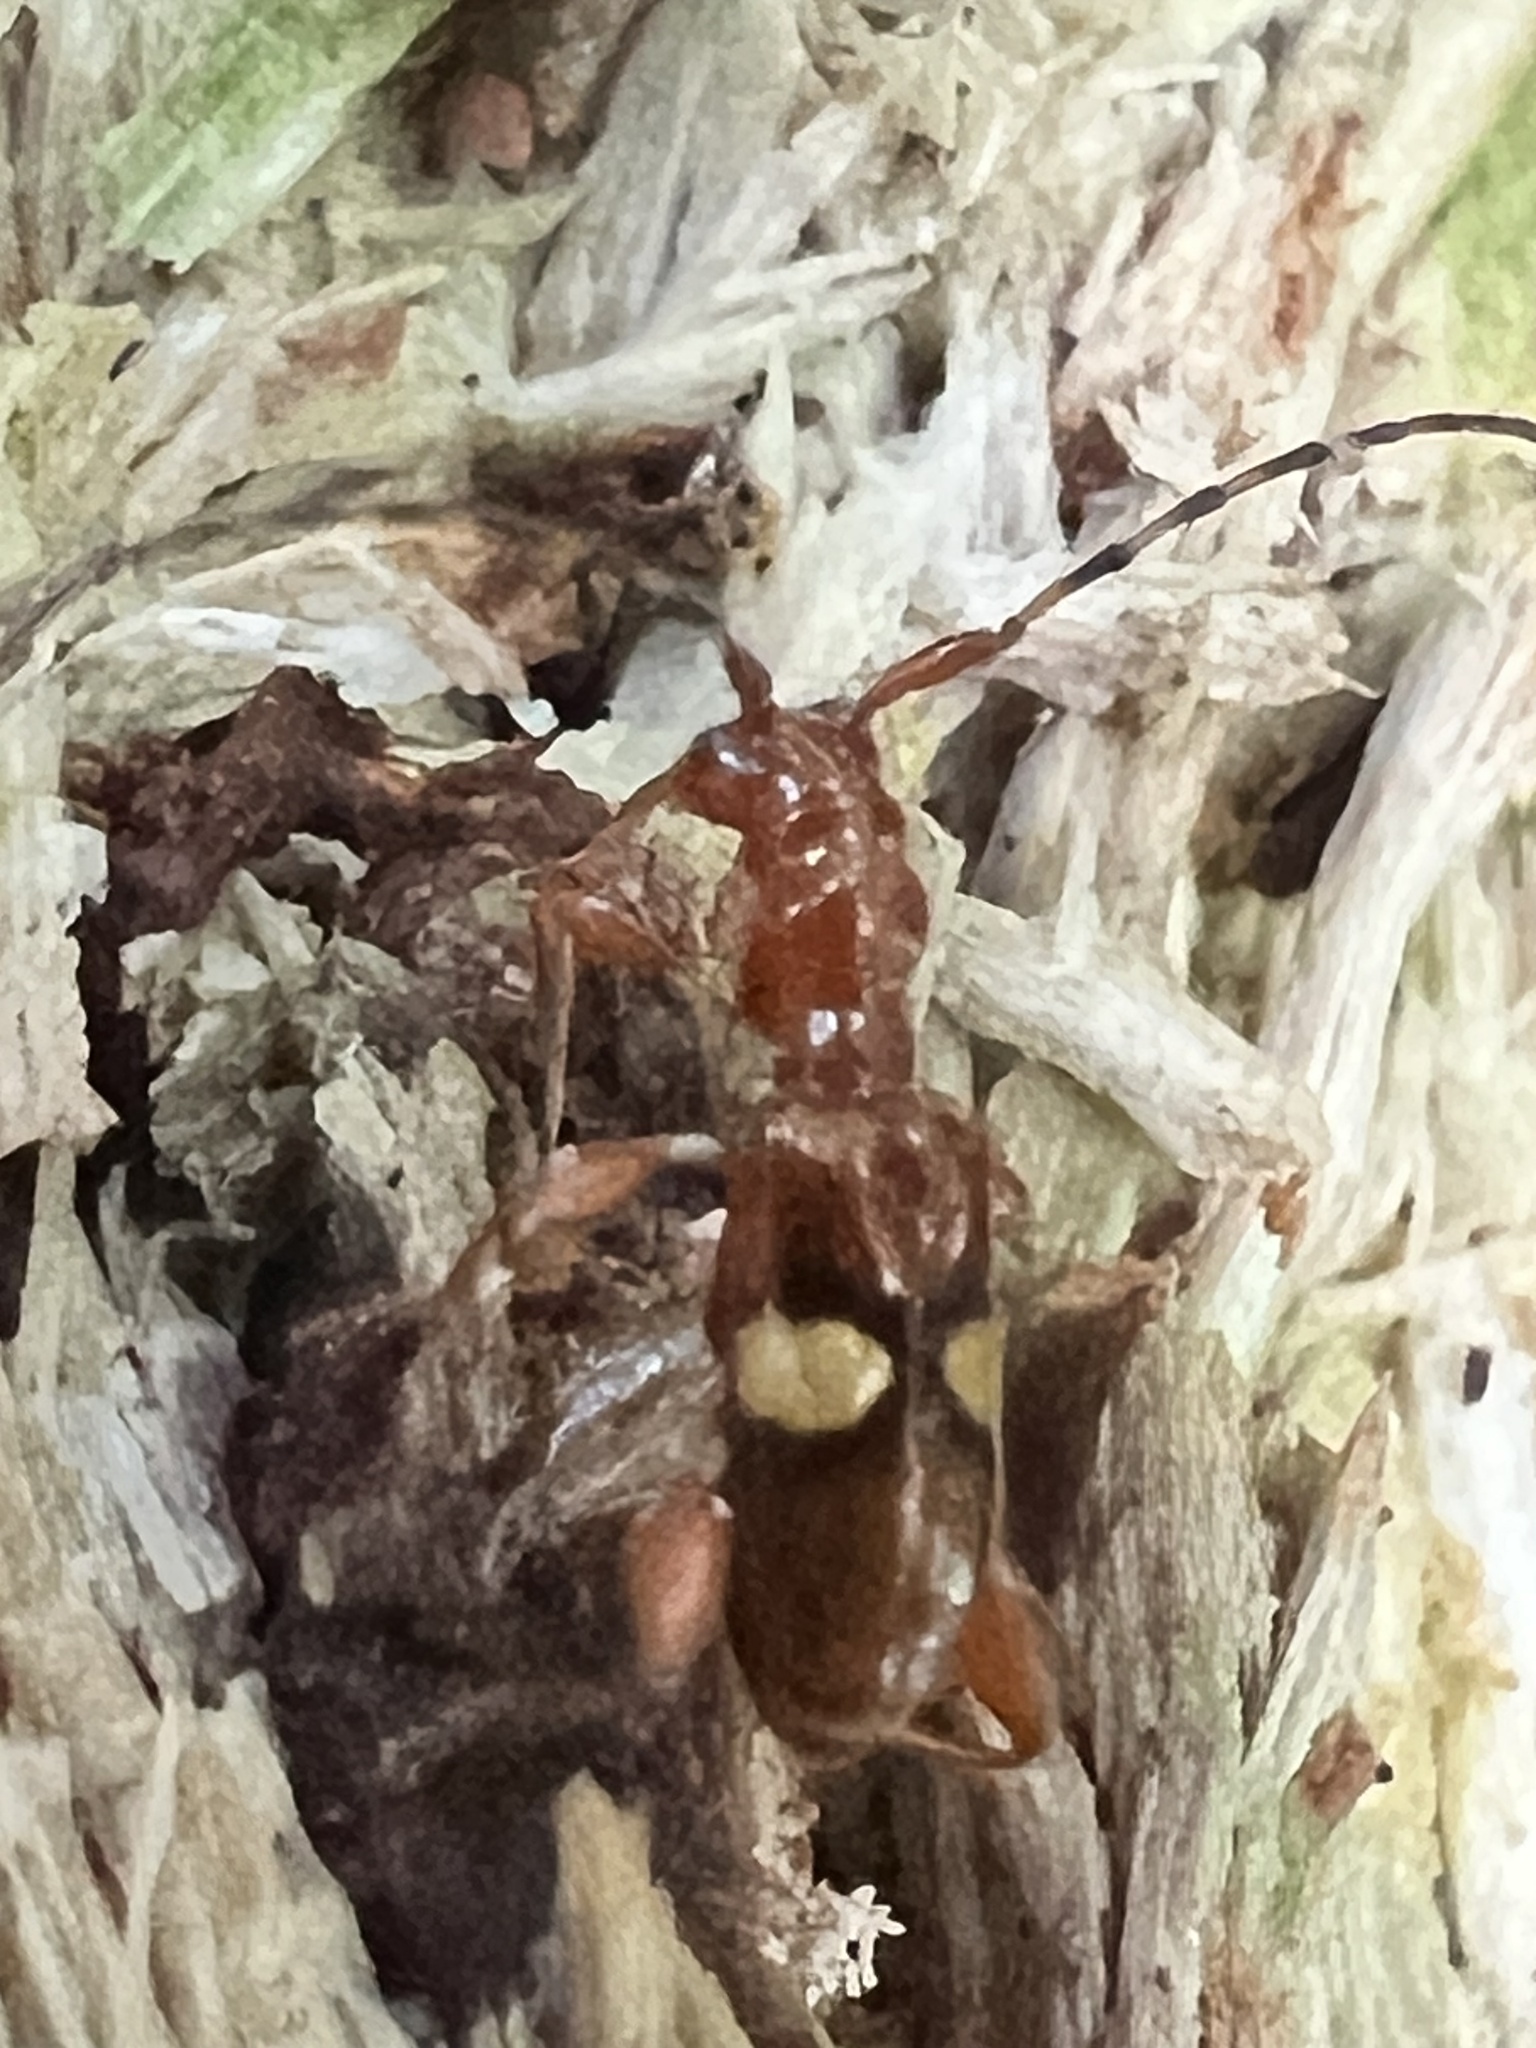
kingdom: Animalia
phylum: Arthropoda
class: Insecta
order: Coleoptera
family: Cerambycidae
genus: Zorion
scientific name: Zorion australe
